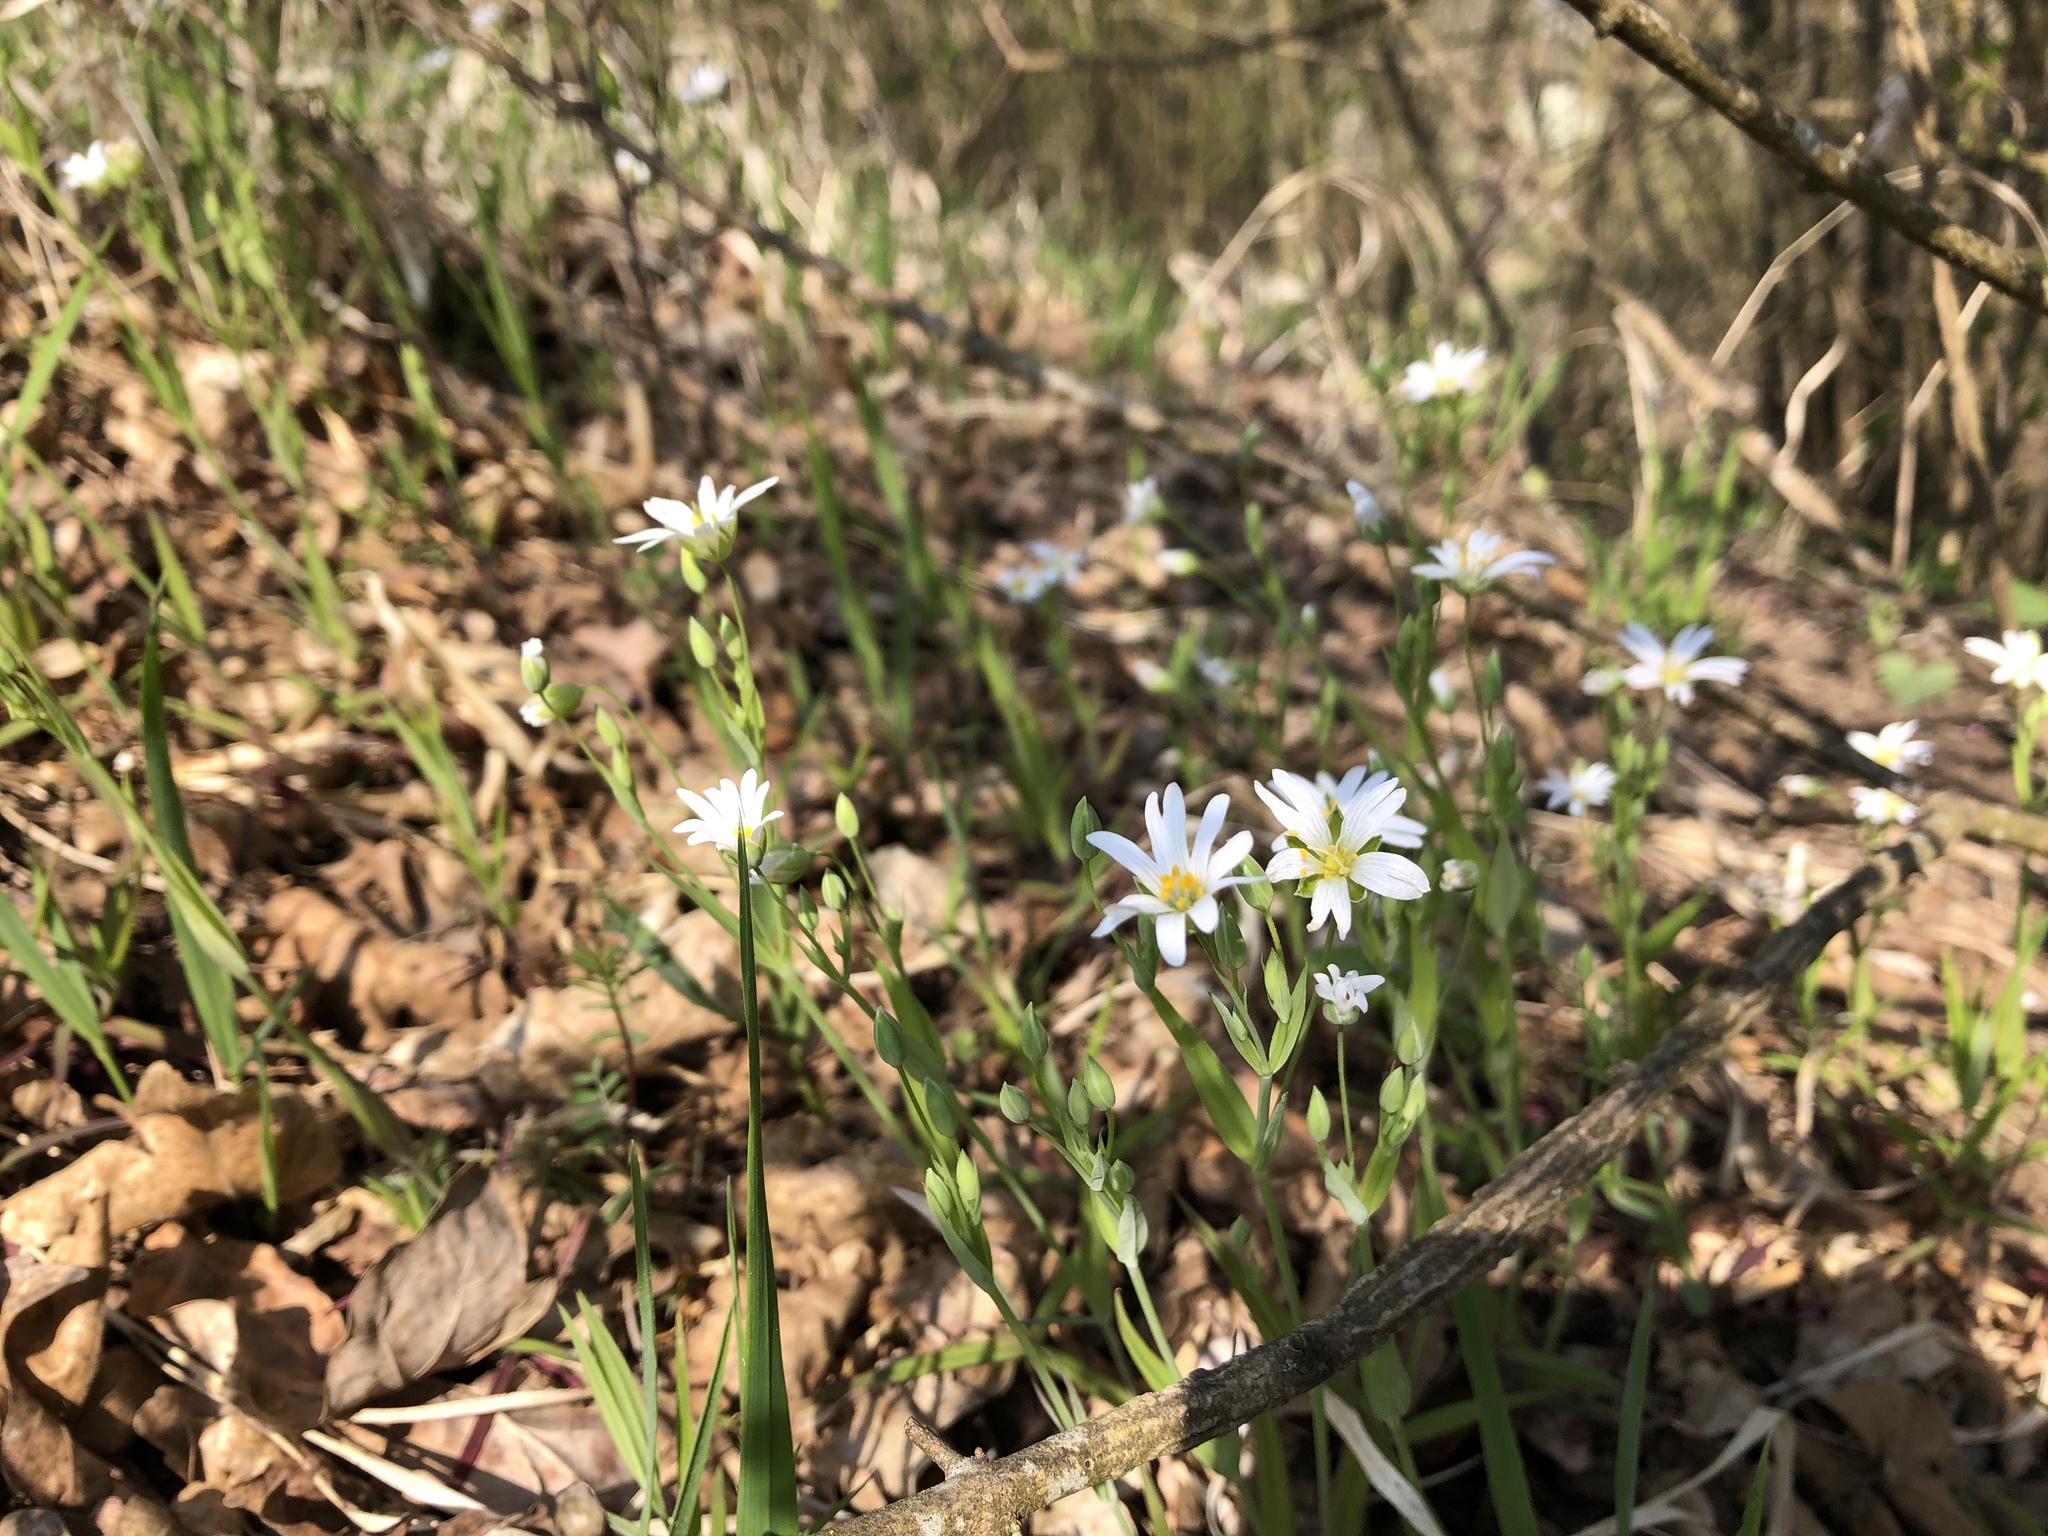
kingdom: Plantae
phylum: Tracheophyta
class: Magnoliopsida
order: Caryophyllales
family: Caryophyllaceae
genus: Rabelera
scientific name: Rabelera holostea
